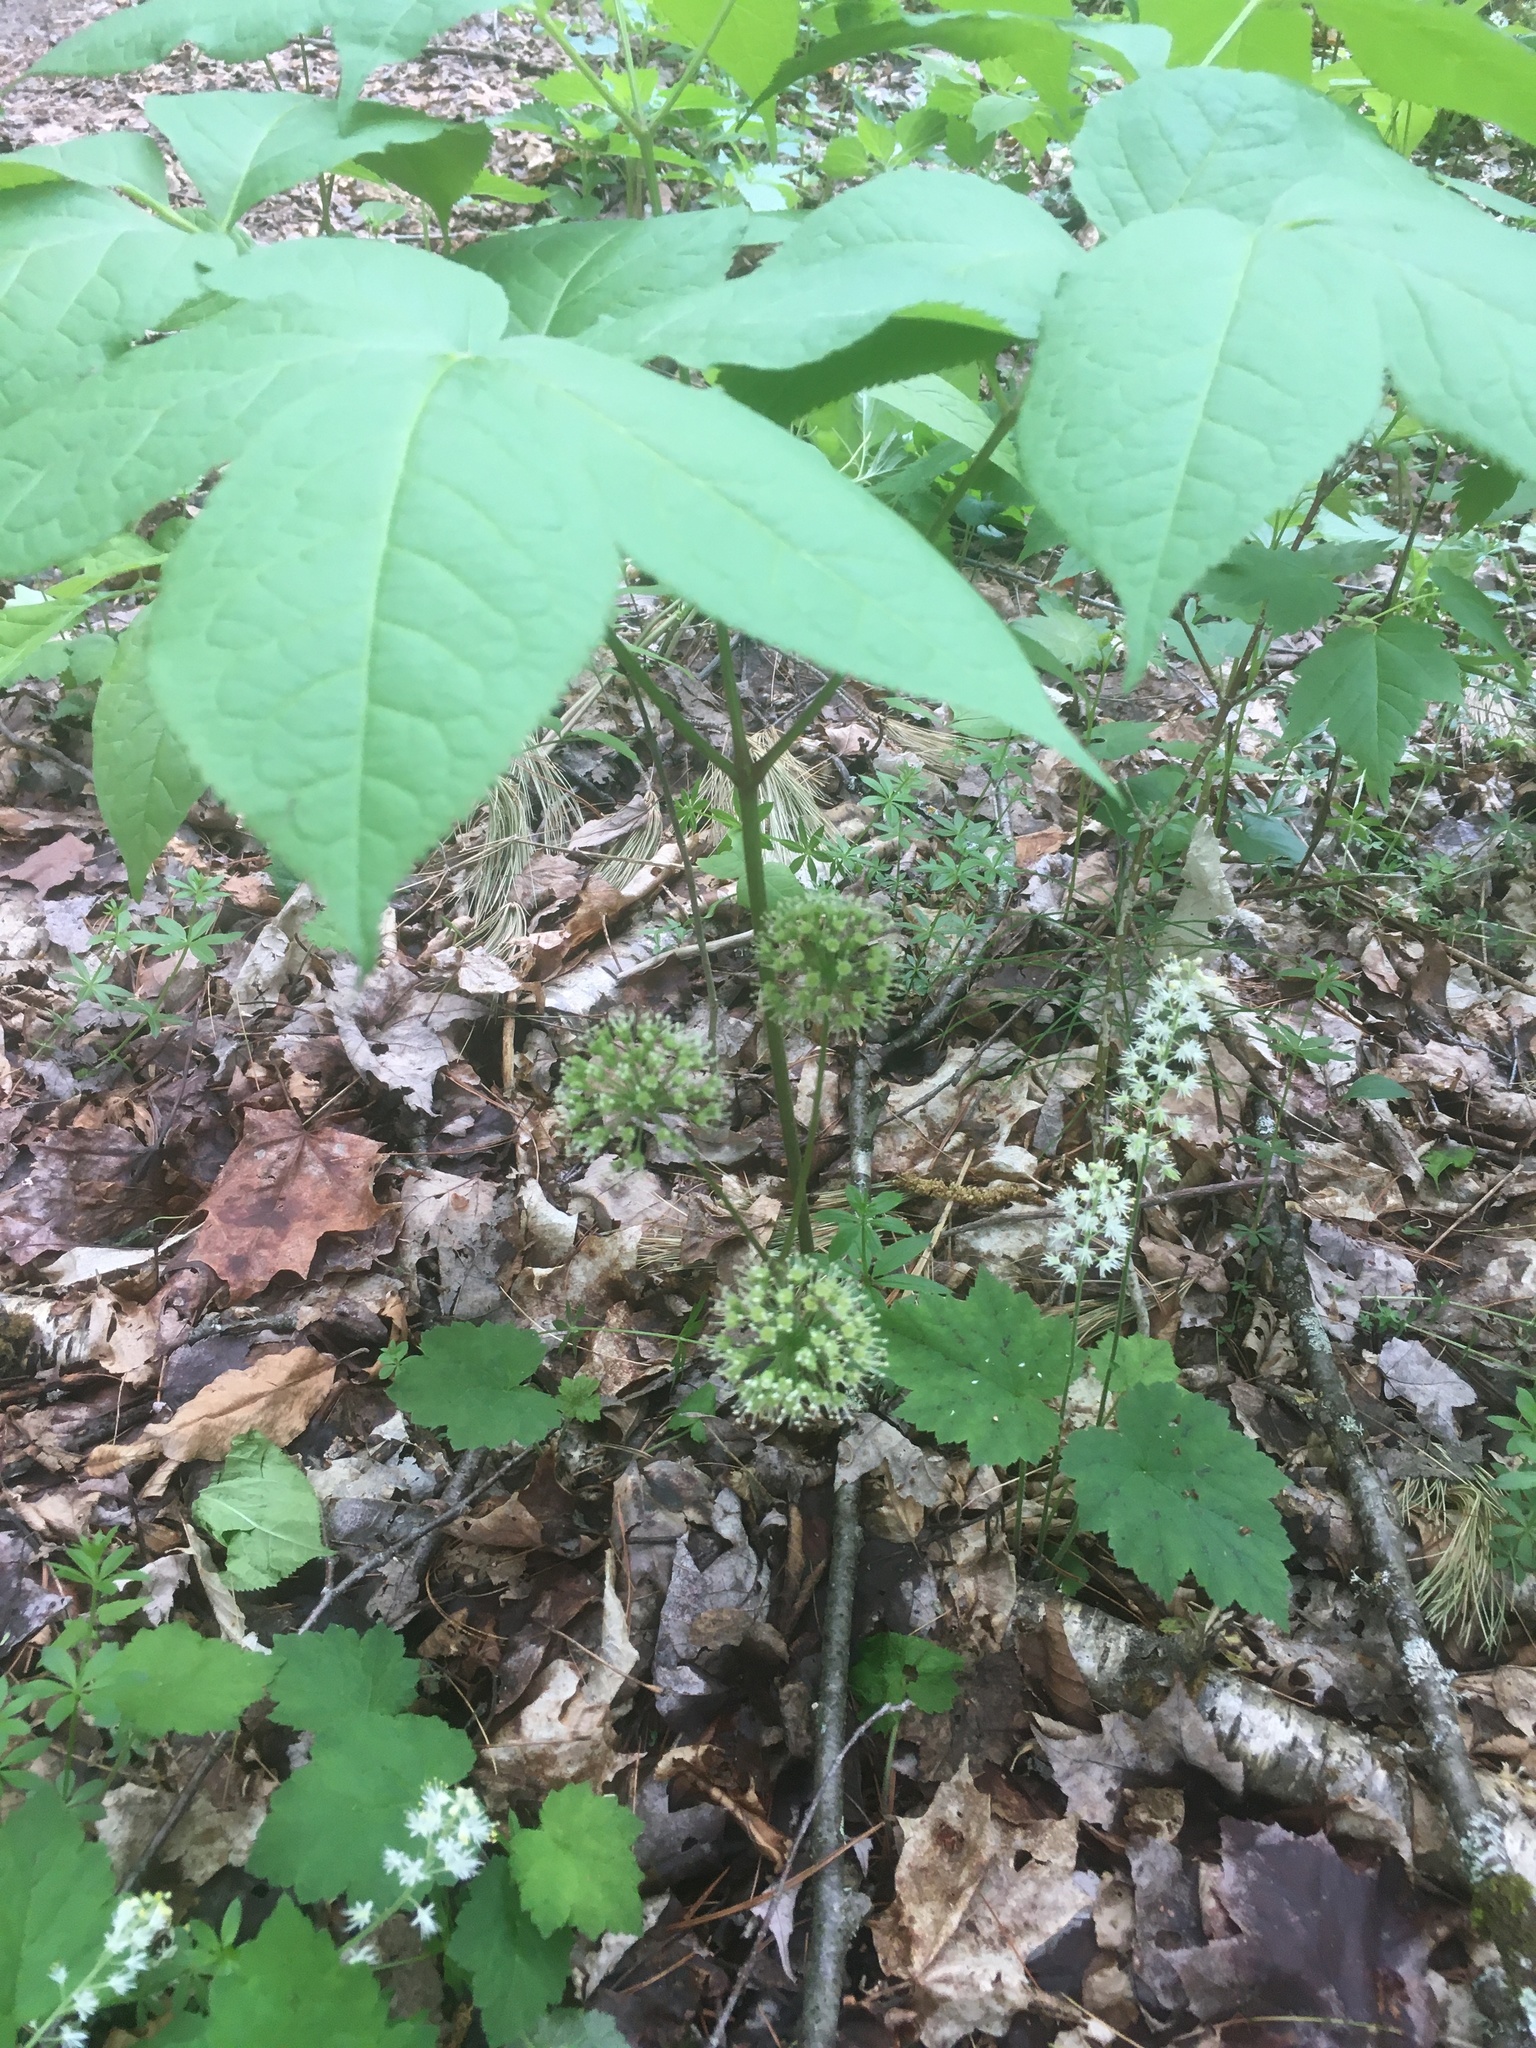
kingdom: Plantae
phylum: Tracheophyta
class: Magnoliopsida
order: Apiales
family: Araliaceae
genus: Aralia
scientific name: Aralia nudicaulis
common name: Wild sarsaparilla
